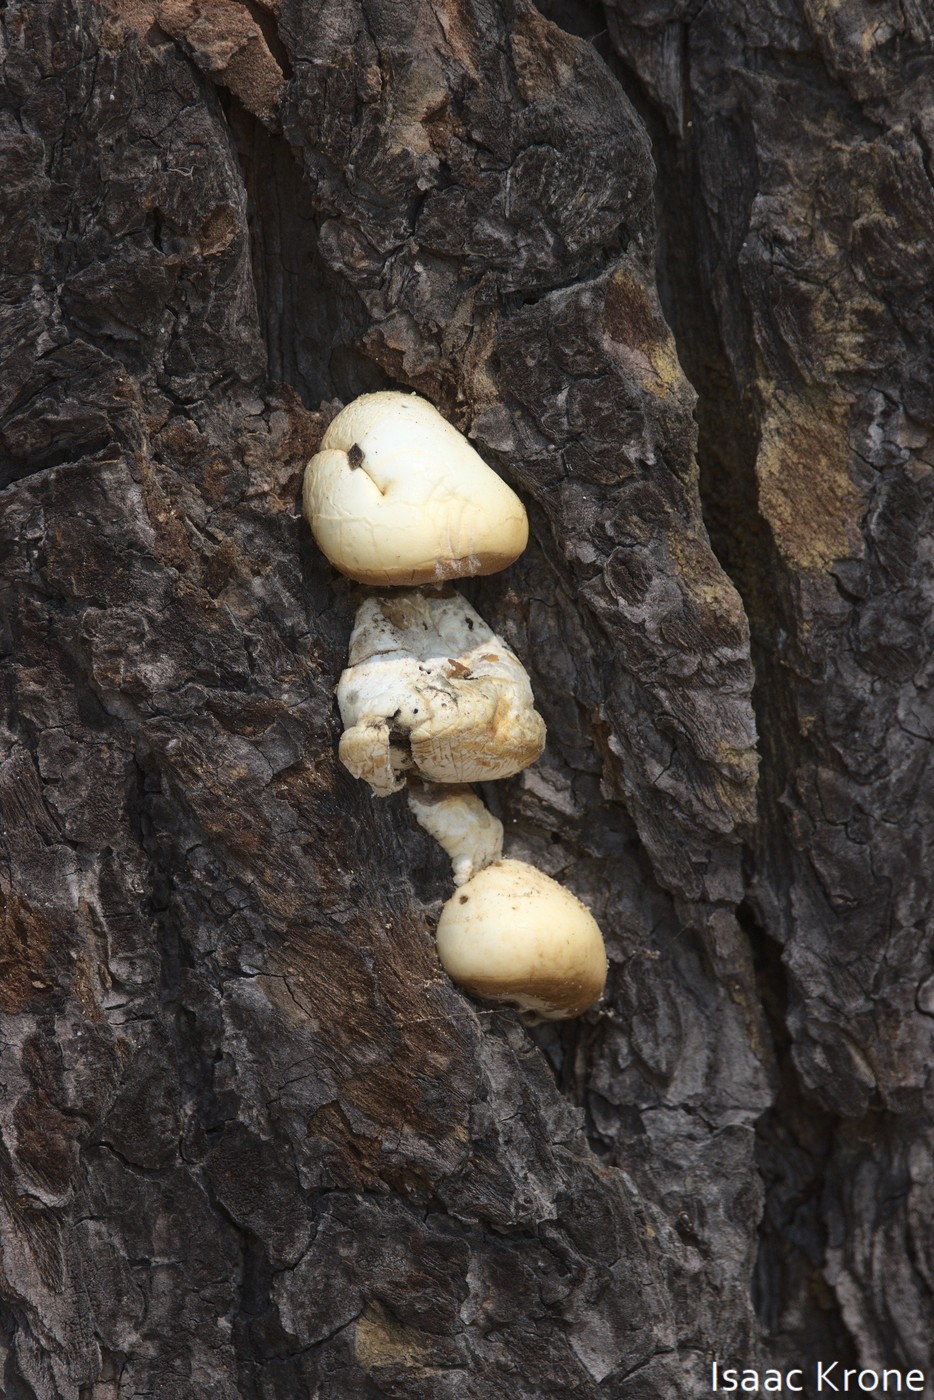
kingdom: Fungi
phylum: Basidiomycota
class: Agaricomycetes
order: Polyporales
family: Polyporaceae
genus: Cryptoporus
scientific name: Cryptoporus volvatus
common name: Veiled polypore
